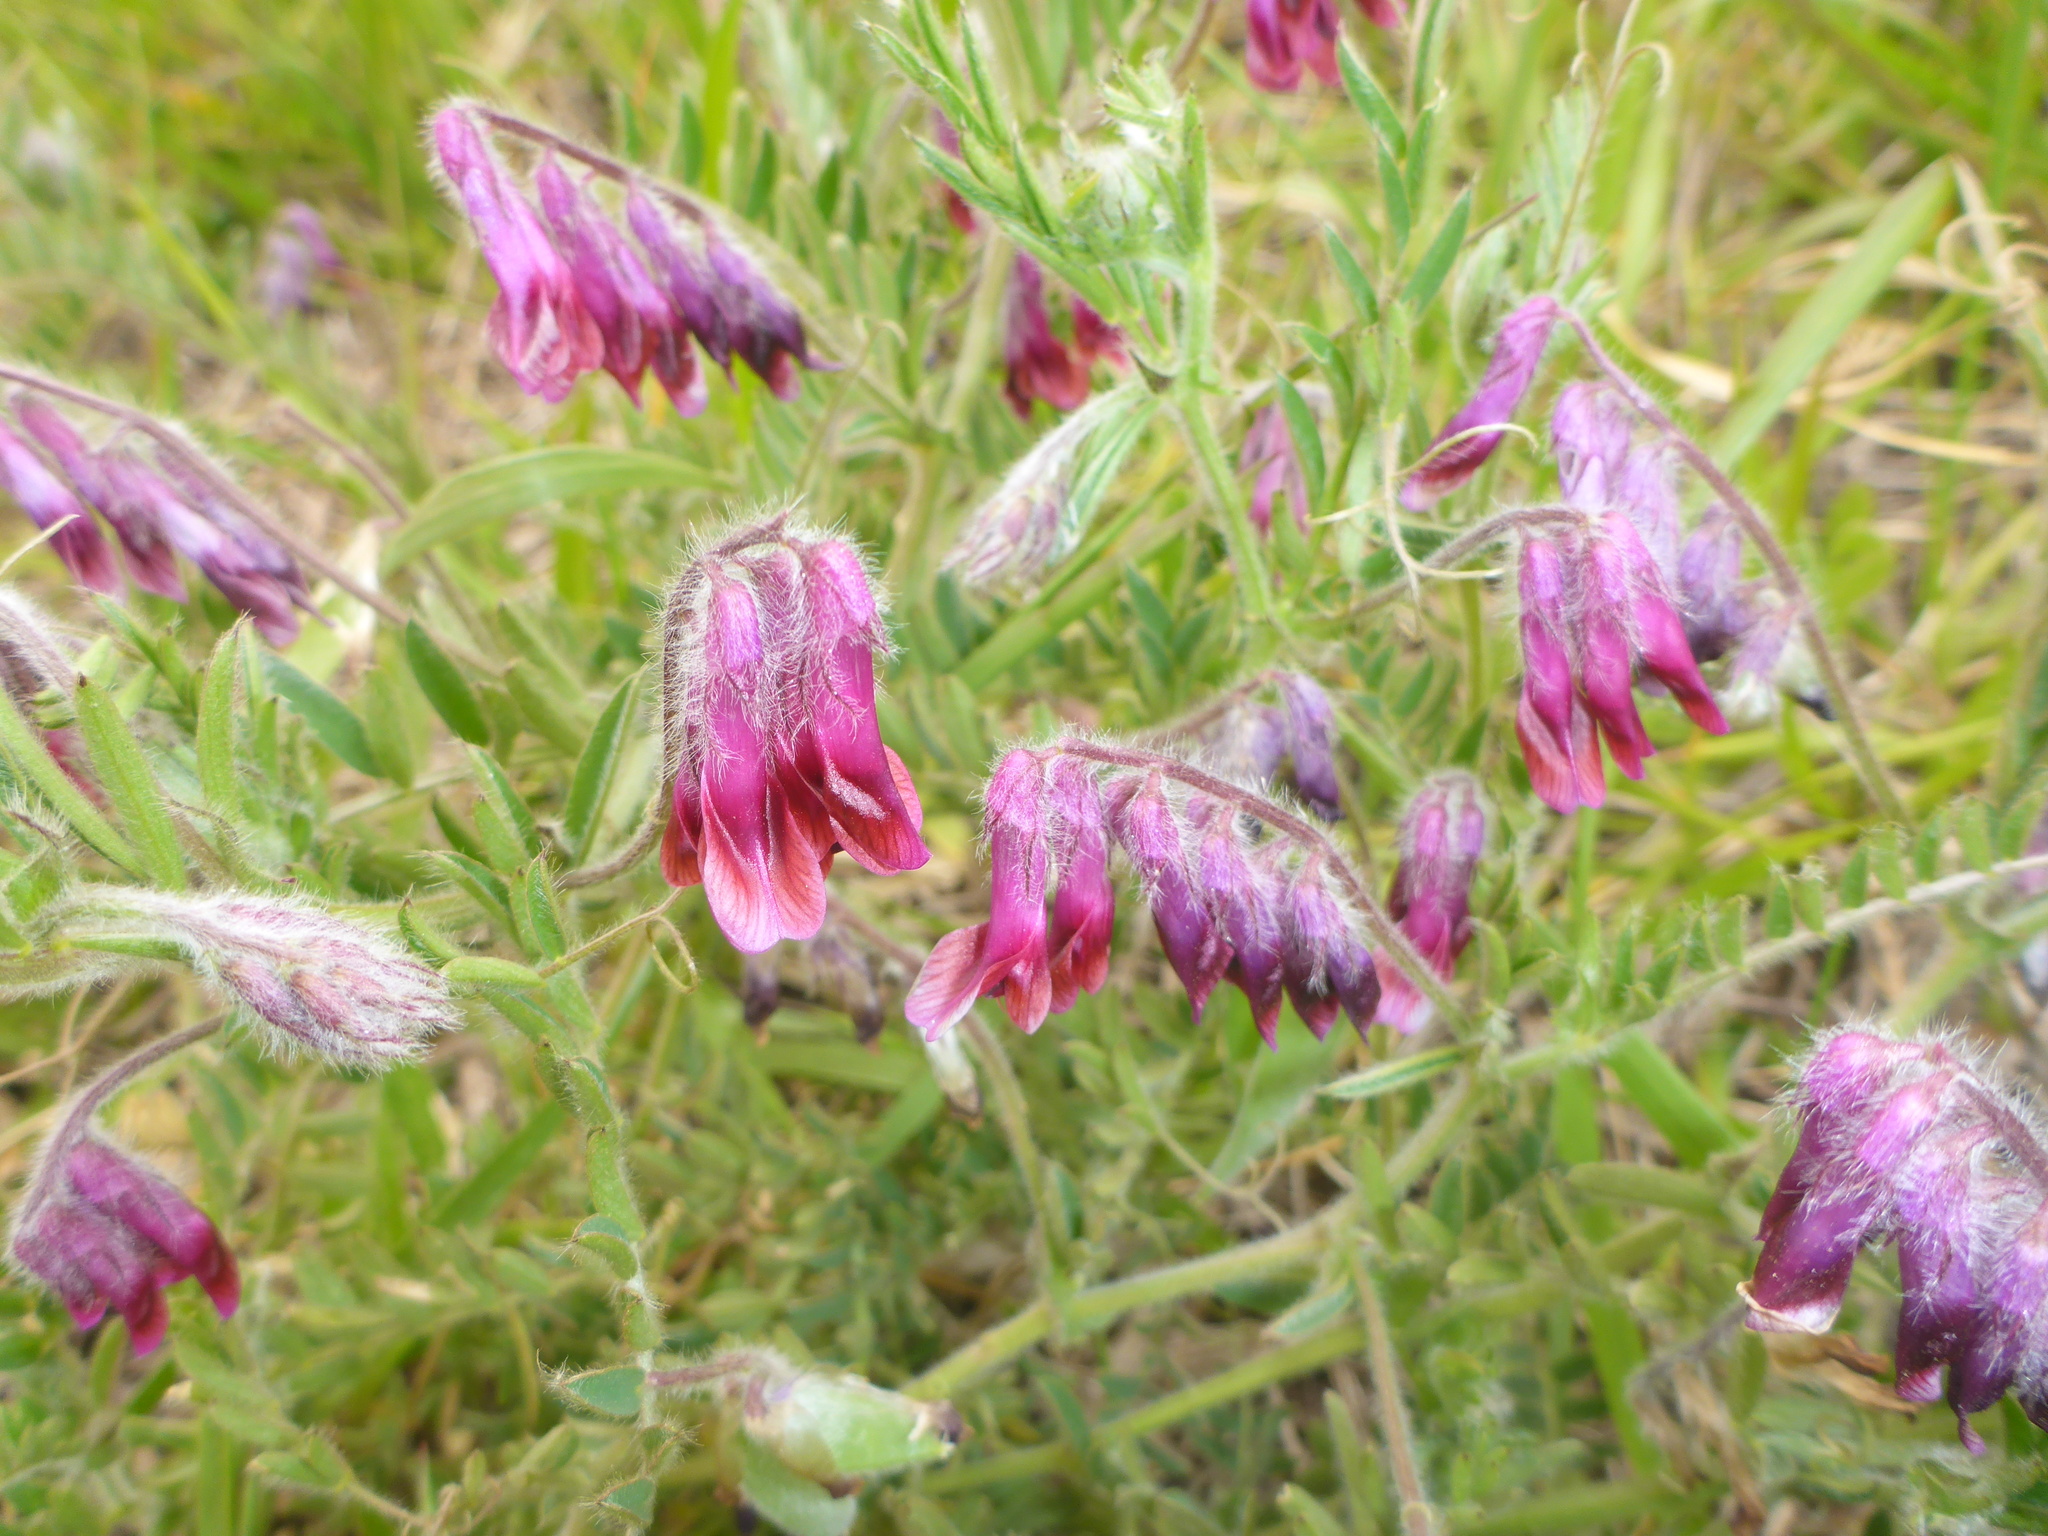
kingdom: Plantae
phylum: Tracheophyta
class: Magnoliopsida
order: Fabales
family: Fabaceae
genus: Vicia
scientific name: Vicia benghalensis
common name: Purple vetch
